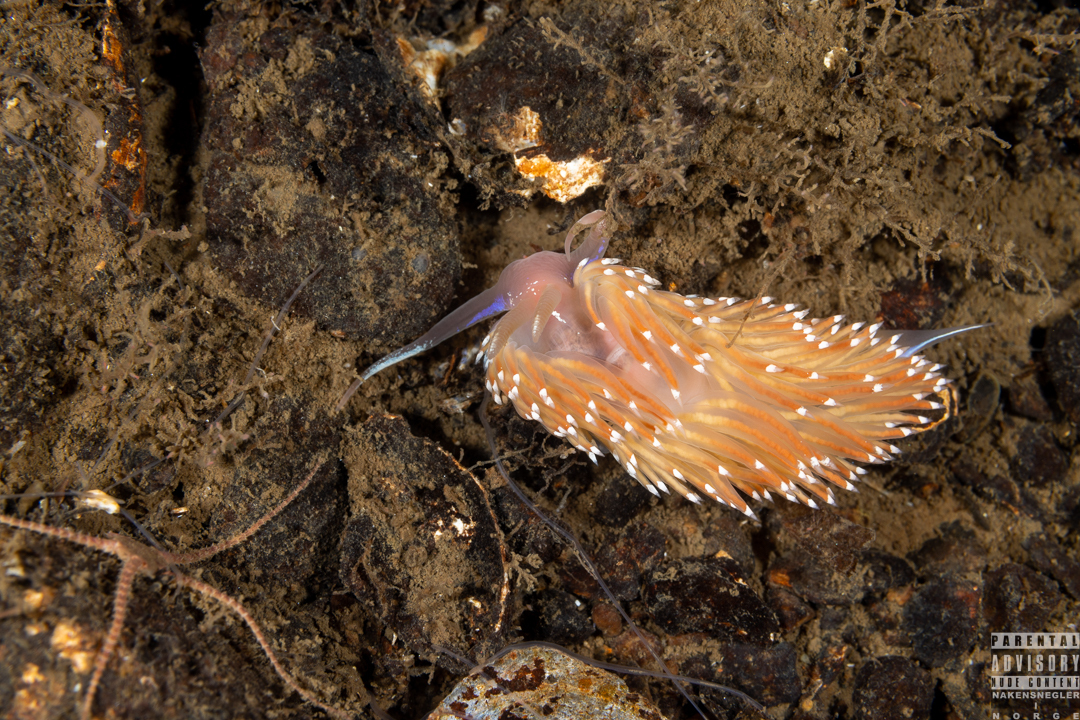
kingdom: Animalia
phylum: Mollusca
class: Gastropoda
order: Nudibranchia
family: Facelinidae
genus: Facelina
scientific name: Facelina bostoniensis
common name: Boston facelina
